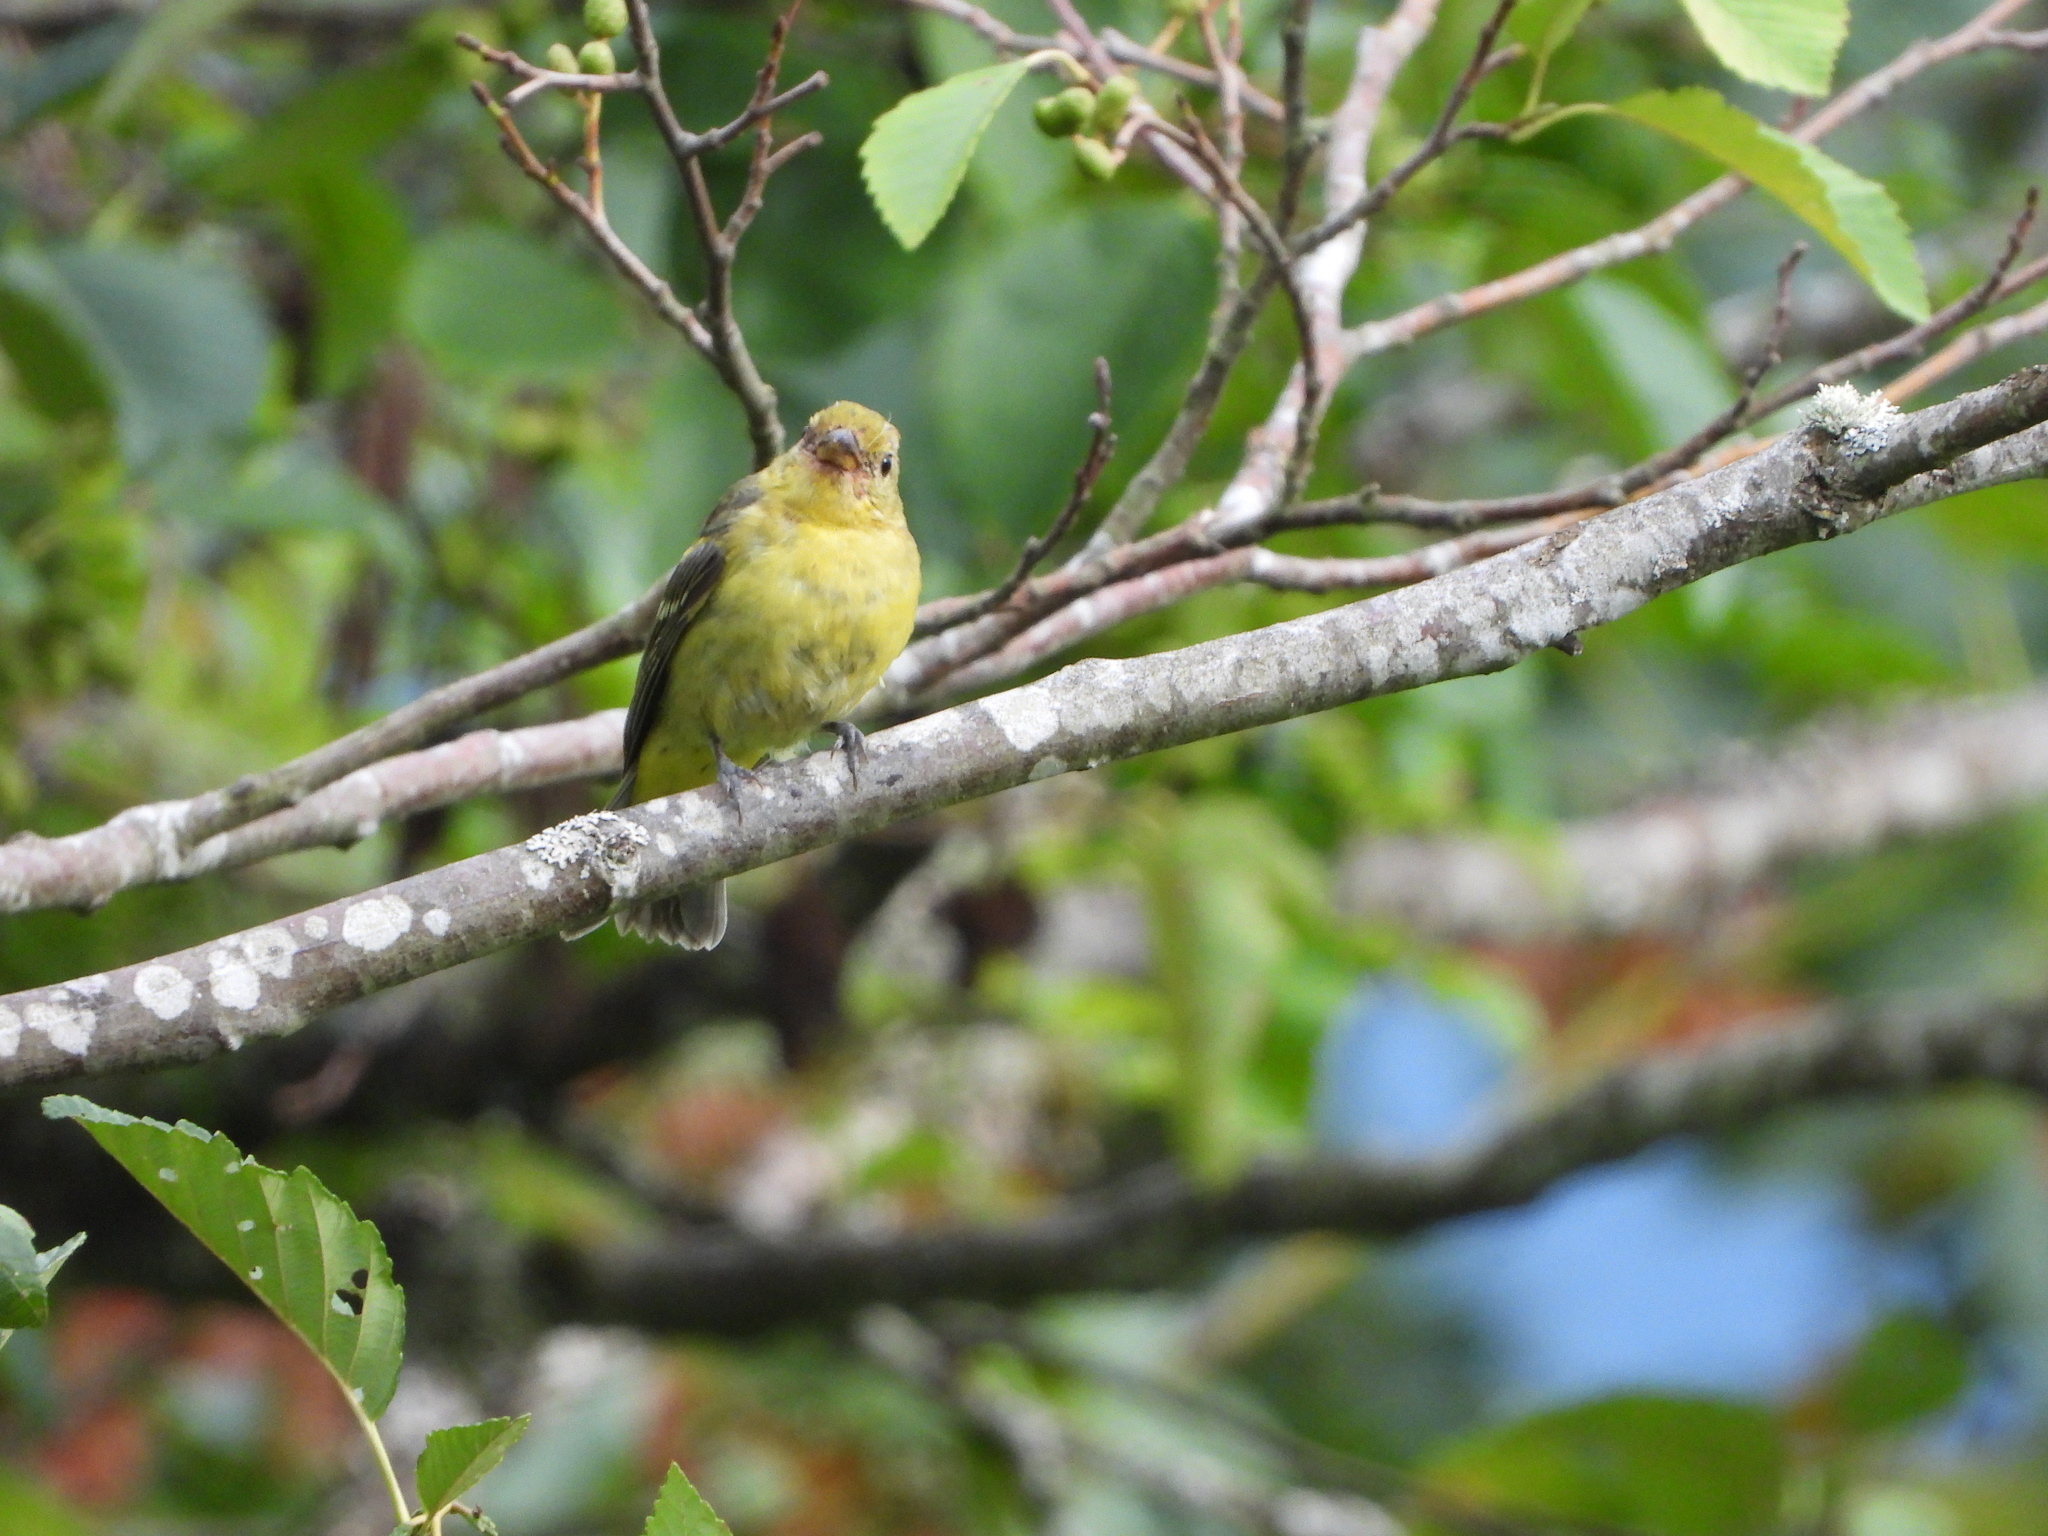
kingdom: Animalia
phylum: Chordata
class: Aves
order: Passeriformes
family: Cardinalidae
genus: Piranga
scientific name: Piranga ludoviciana
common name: Western tanager
